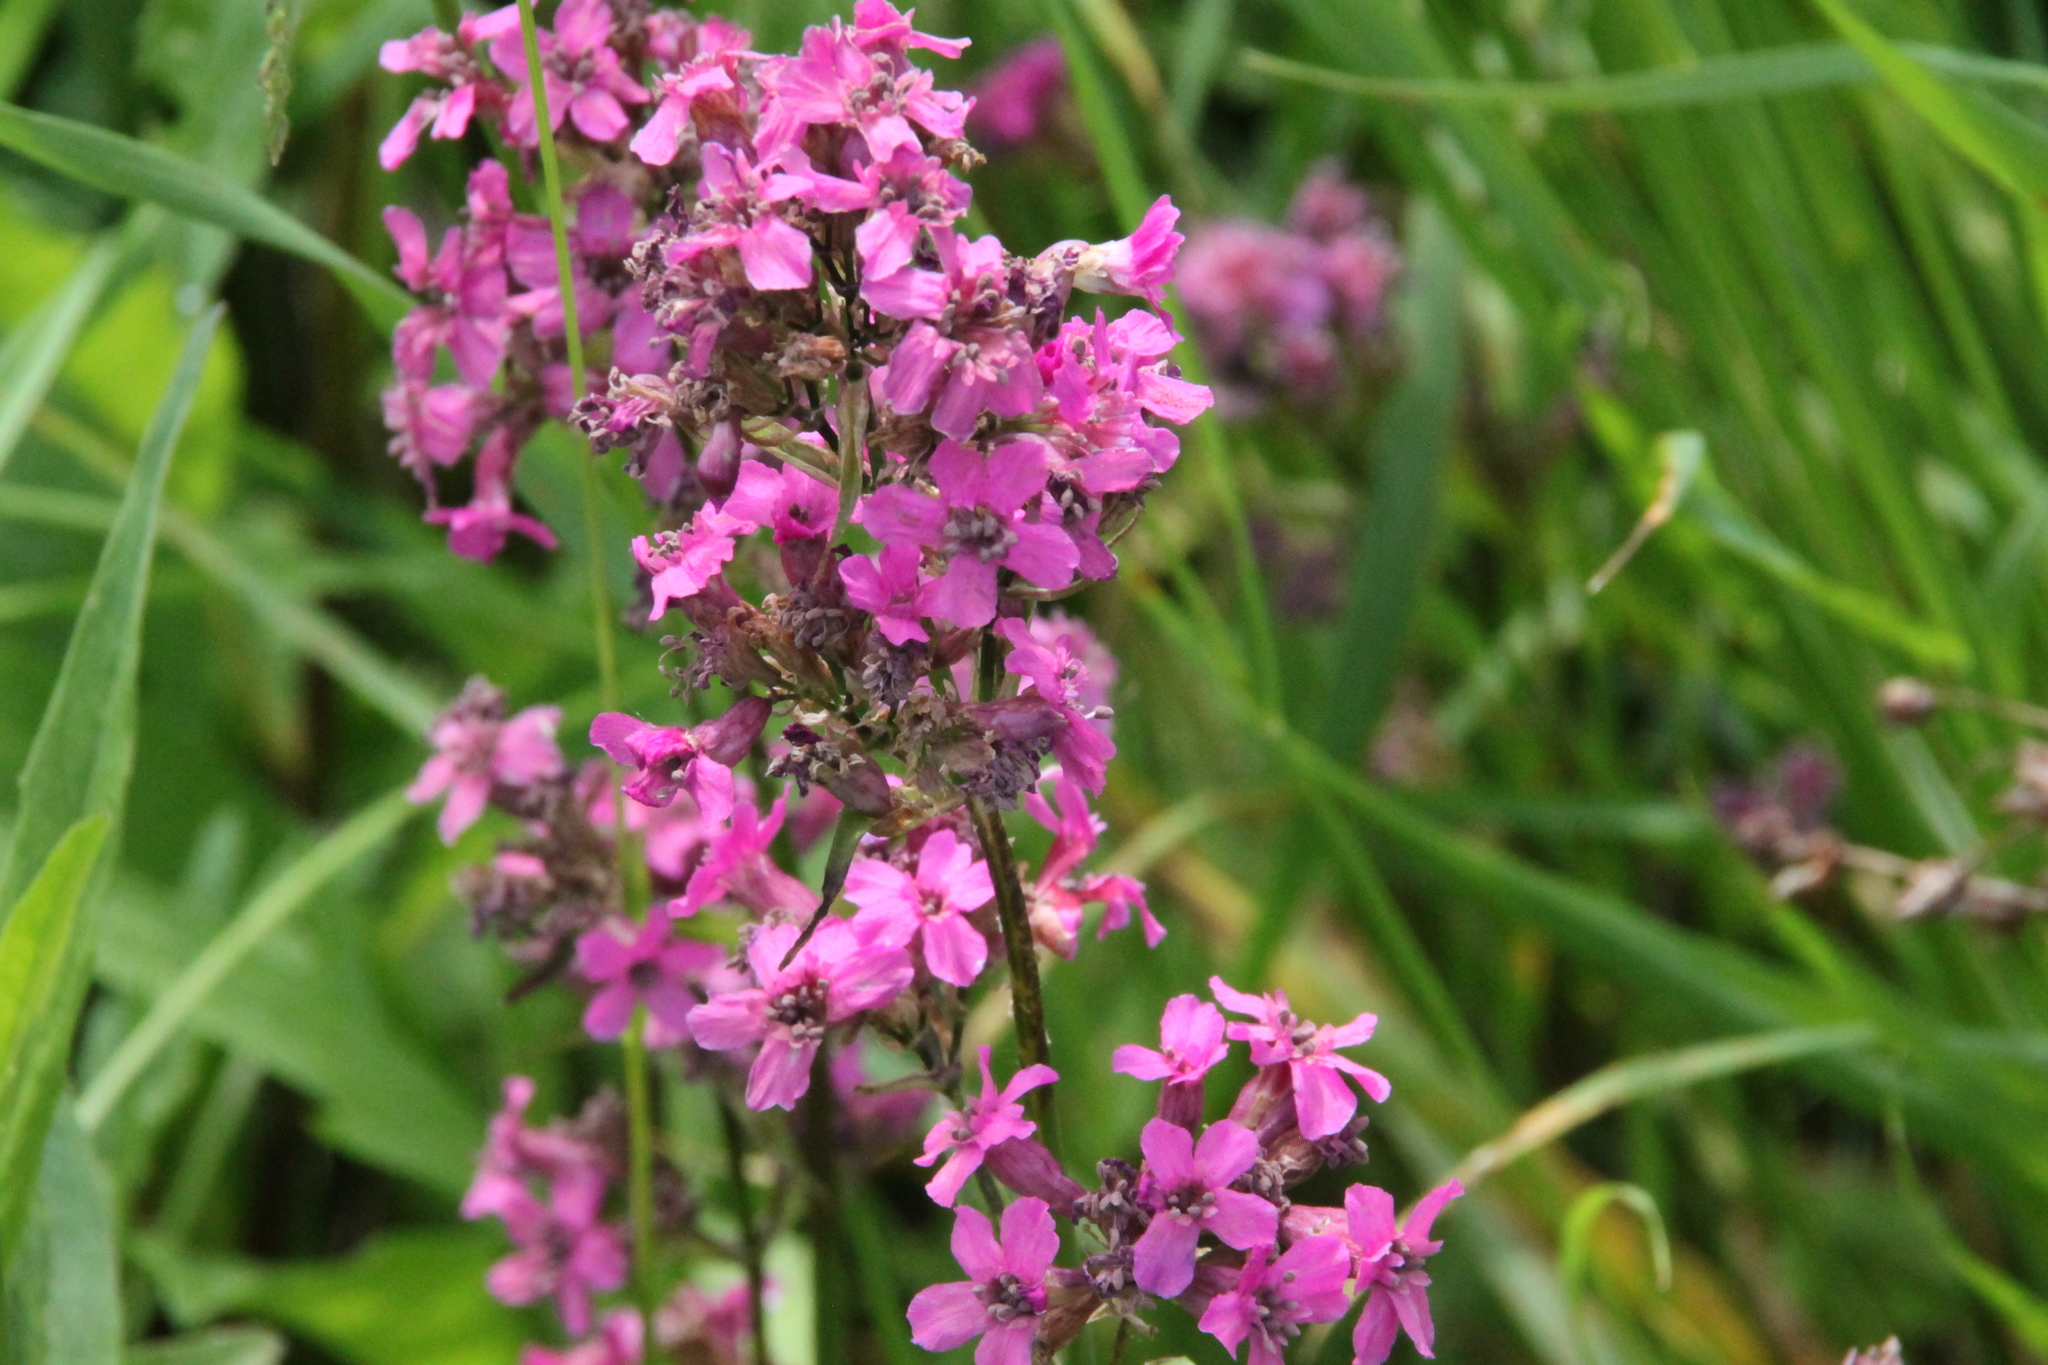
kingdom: Plantae
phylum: Tracheophyta
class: Magnoliopsida
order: Caryophyllales
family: Caryophyllaceae
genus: Viscaria
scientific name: Viscaria vulgaris
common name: Clammy campion
